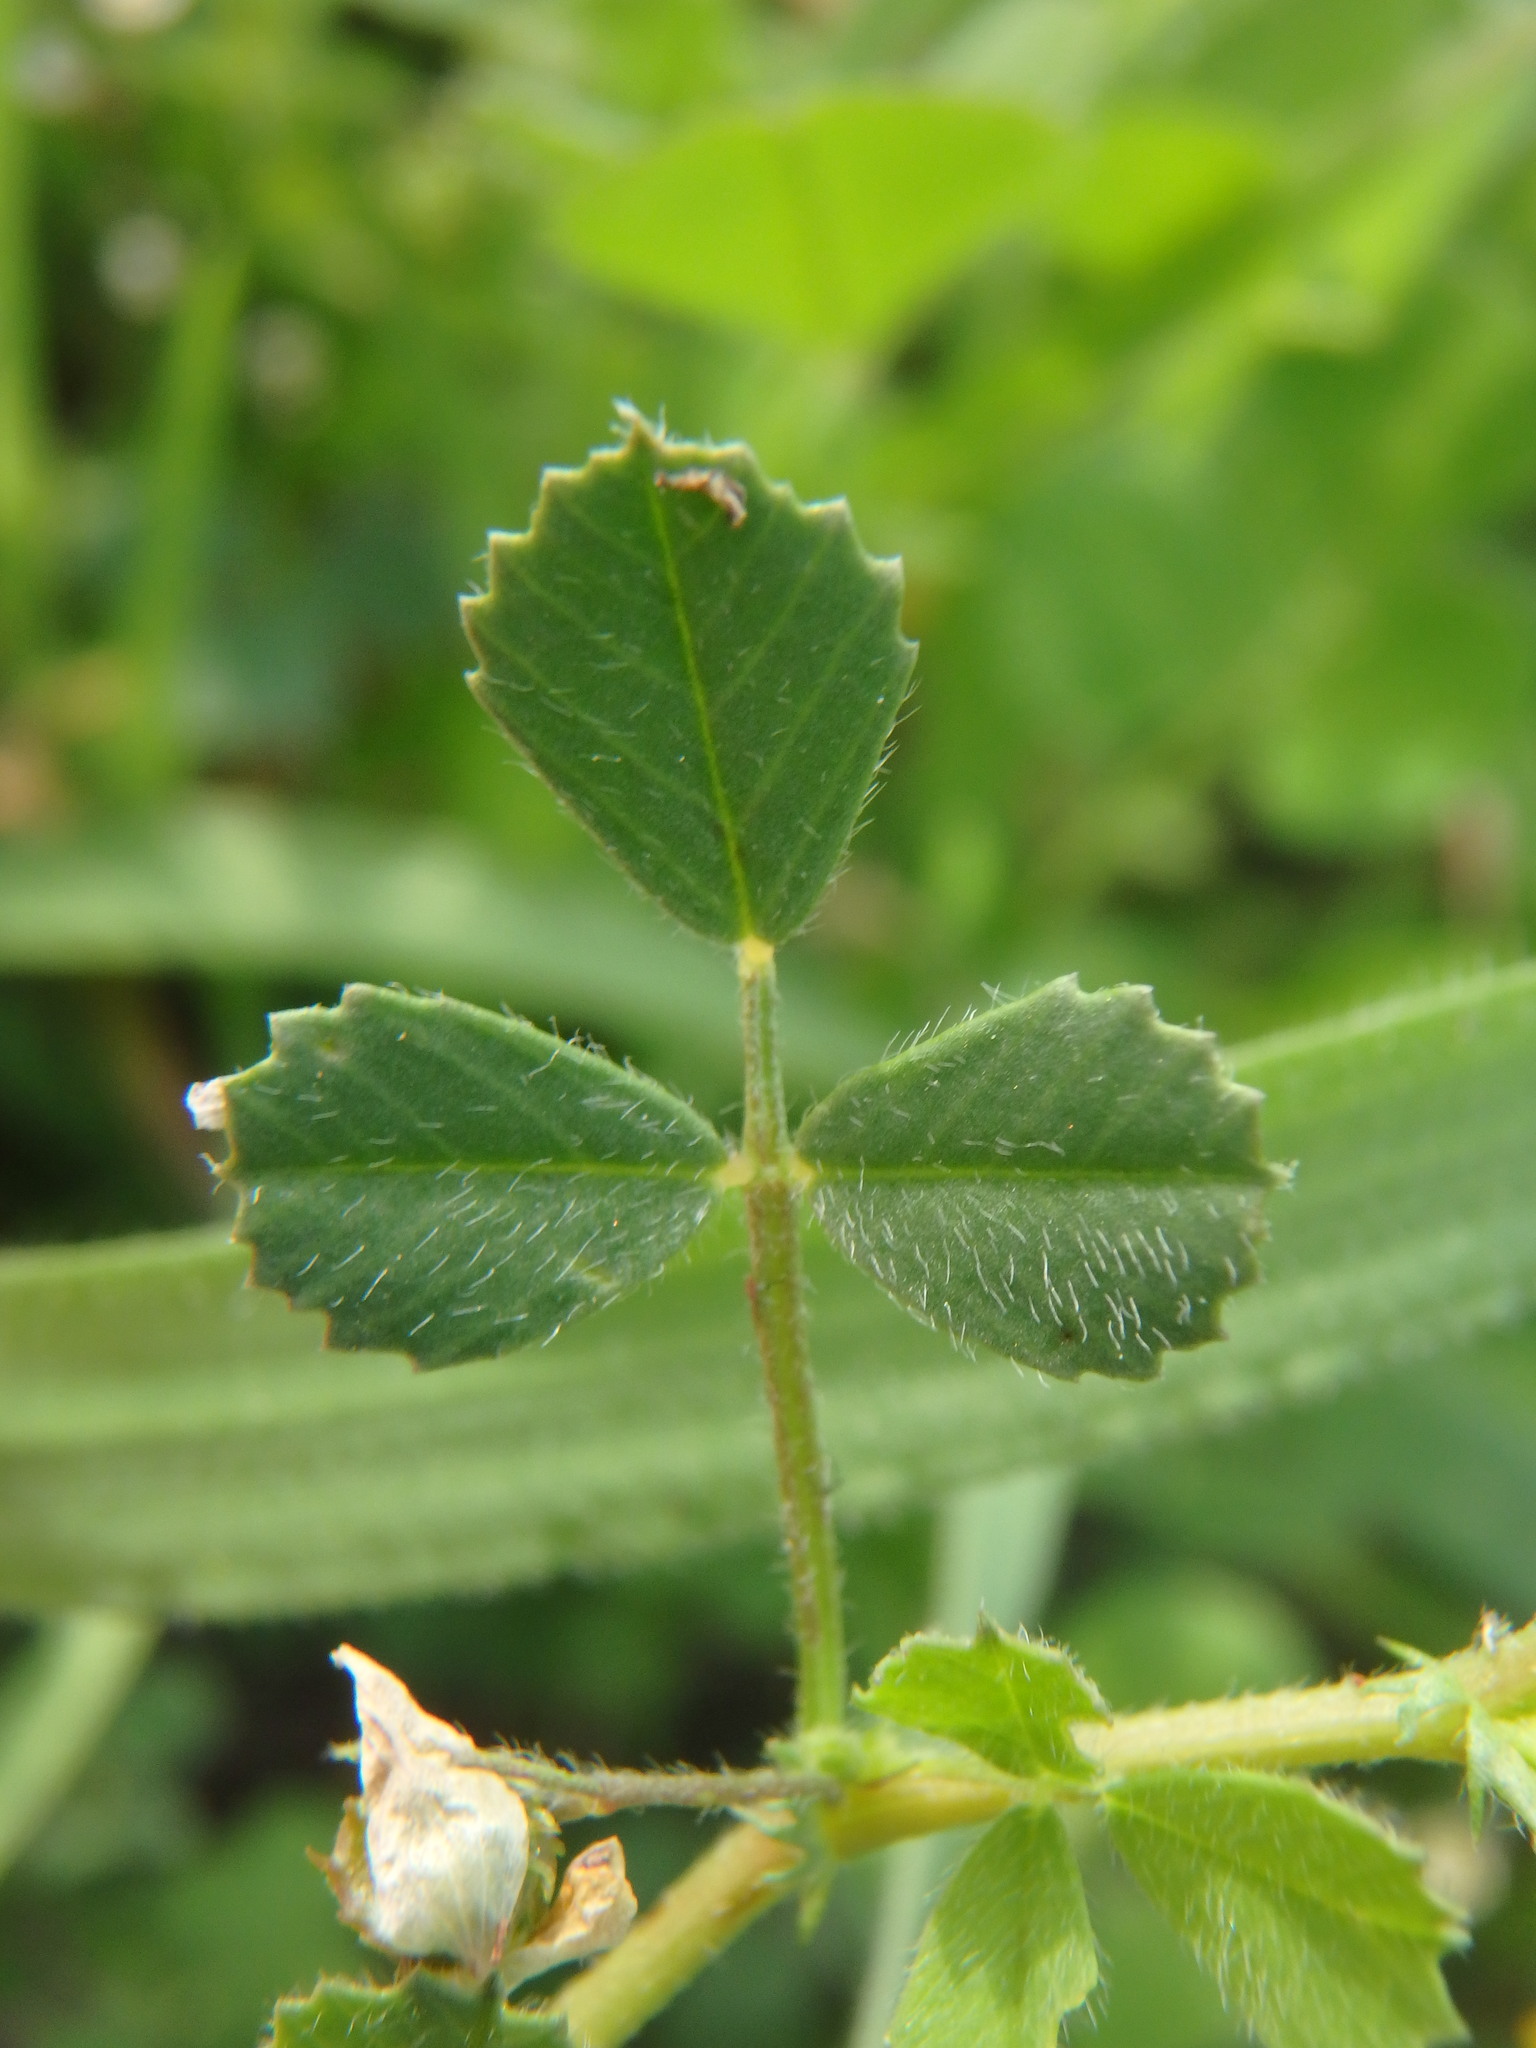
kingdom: Plantae
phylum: Tracheophyta
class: Magnoliopsida
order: Fabales
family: Fabaceae
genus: Medicago
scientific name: Medicago littoralis
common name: Shore medick
